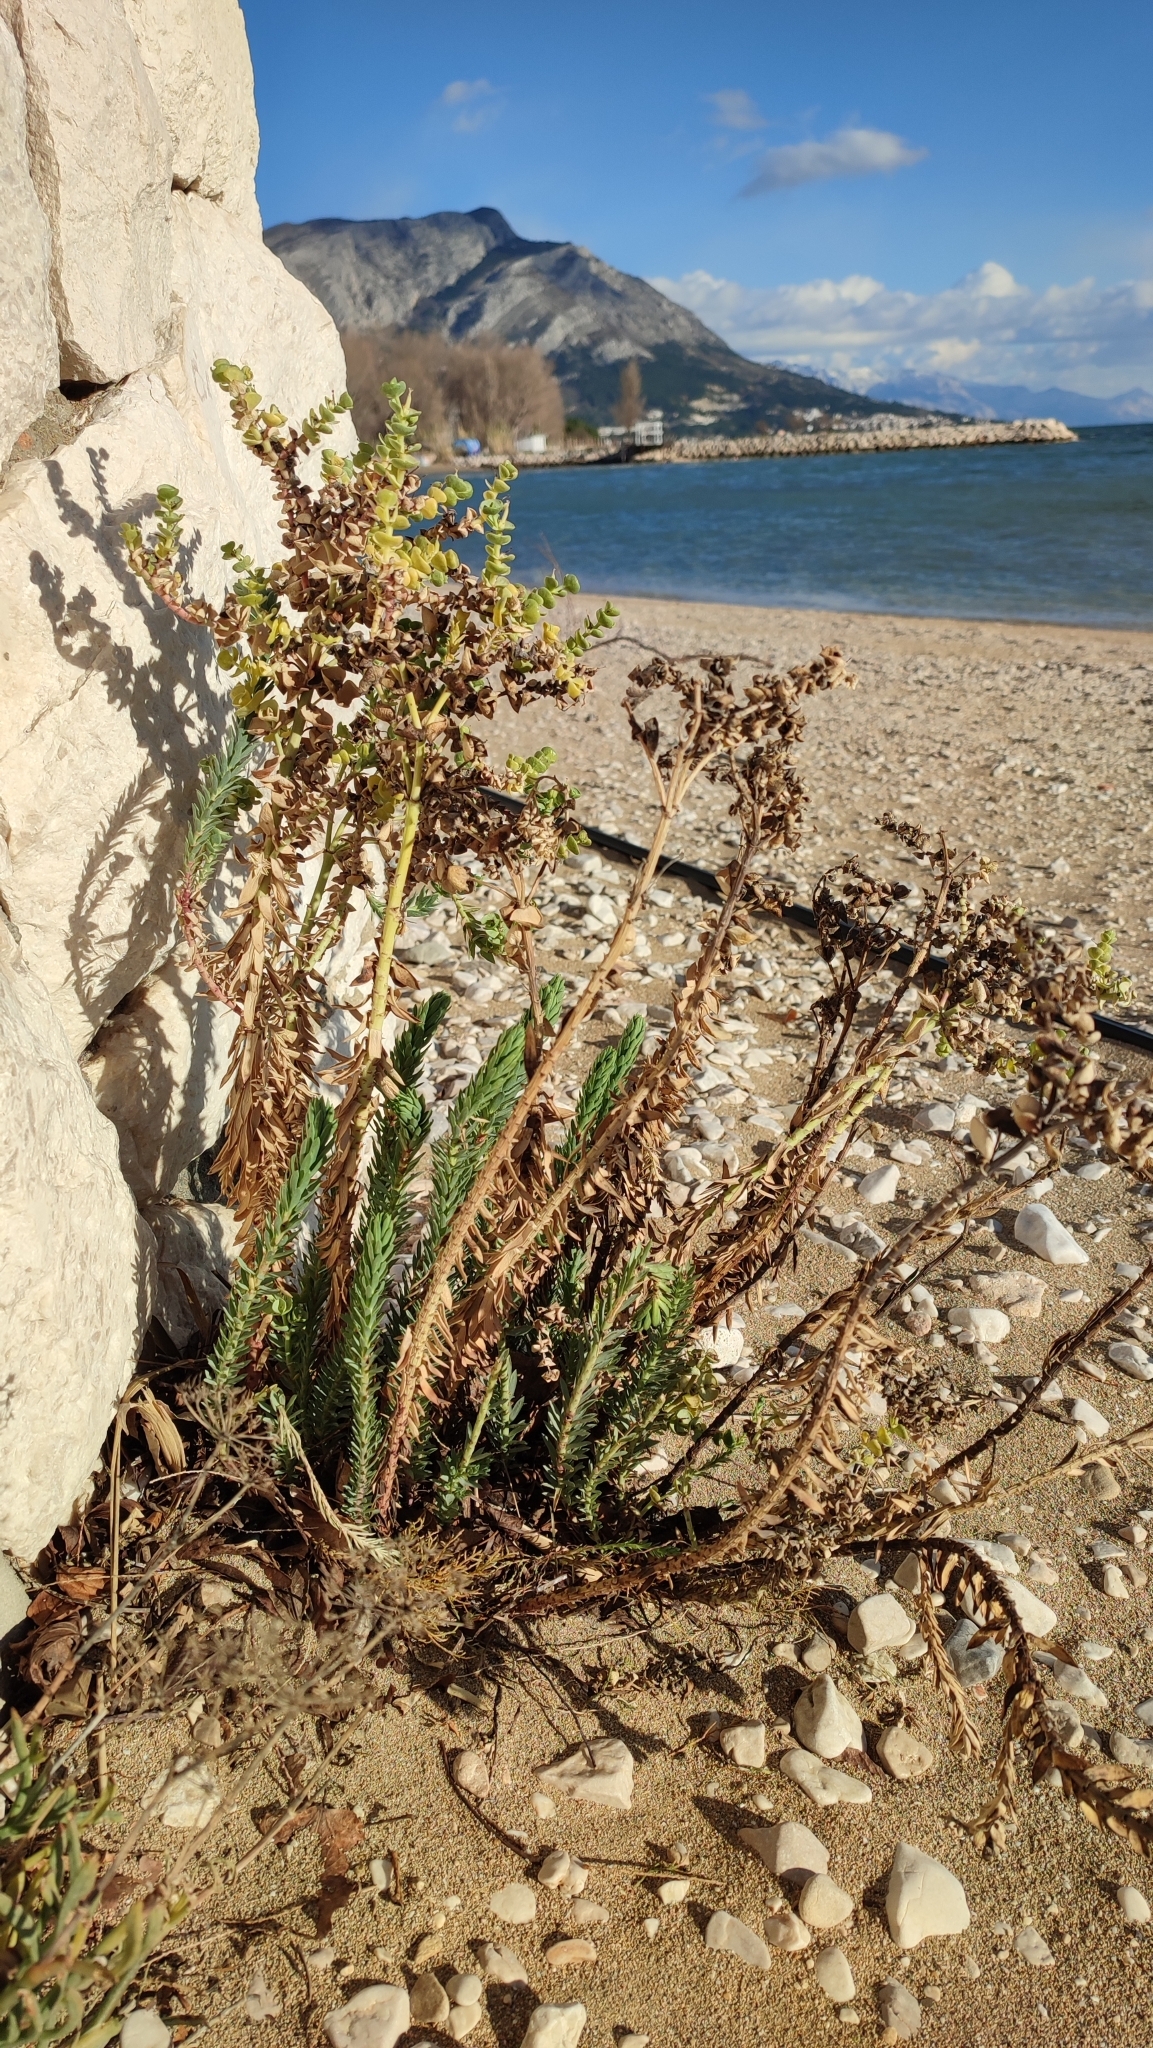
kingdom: Plantae
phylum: Tracheophyta
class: Magnoliopsida
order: Malpighiales
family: Euphorbiaceae
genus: Euphorbia
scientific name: Euphorbia paralias
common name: Sea spurge
